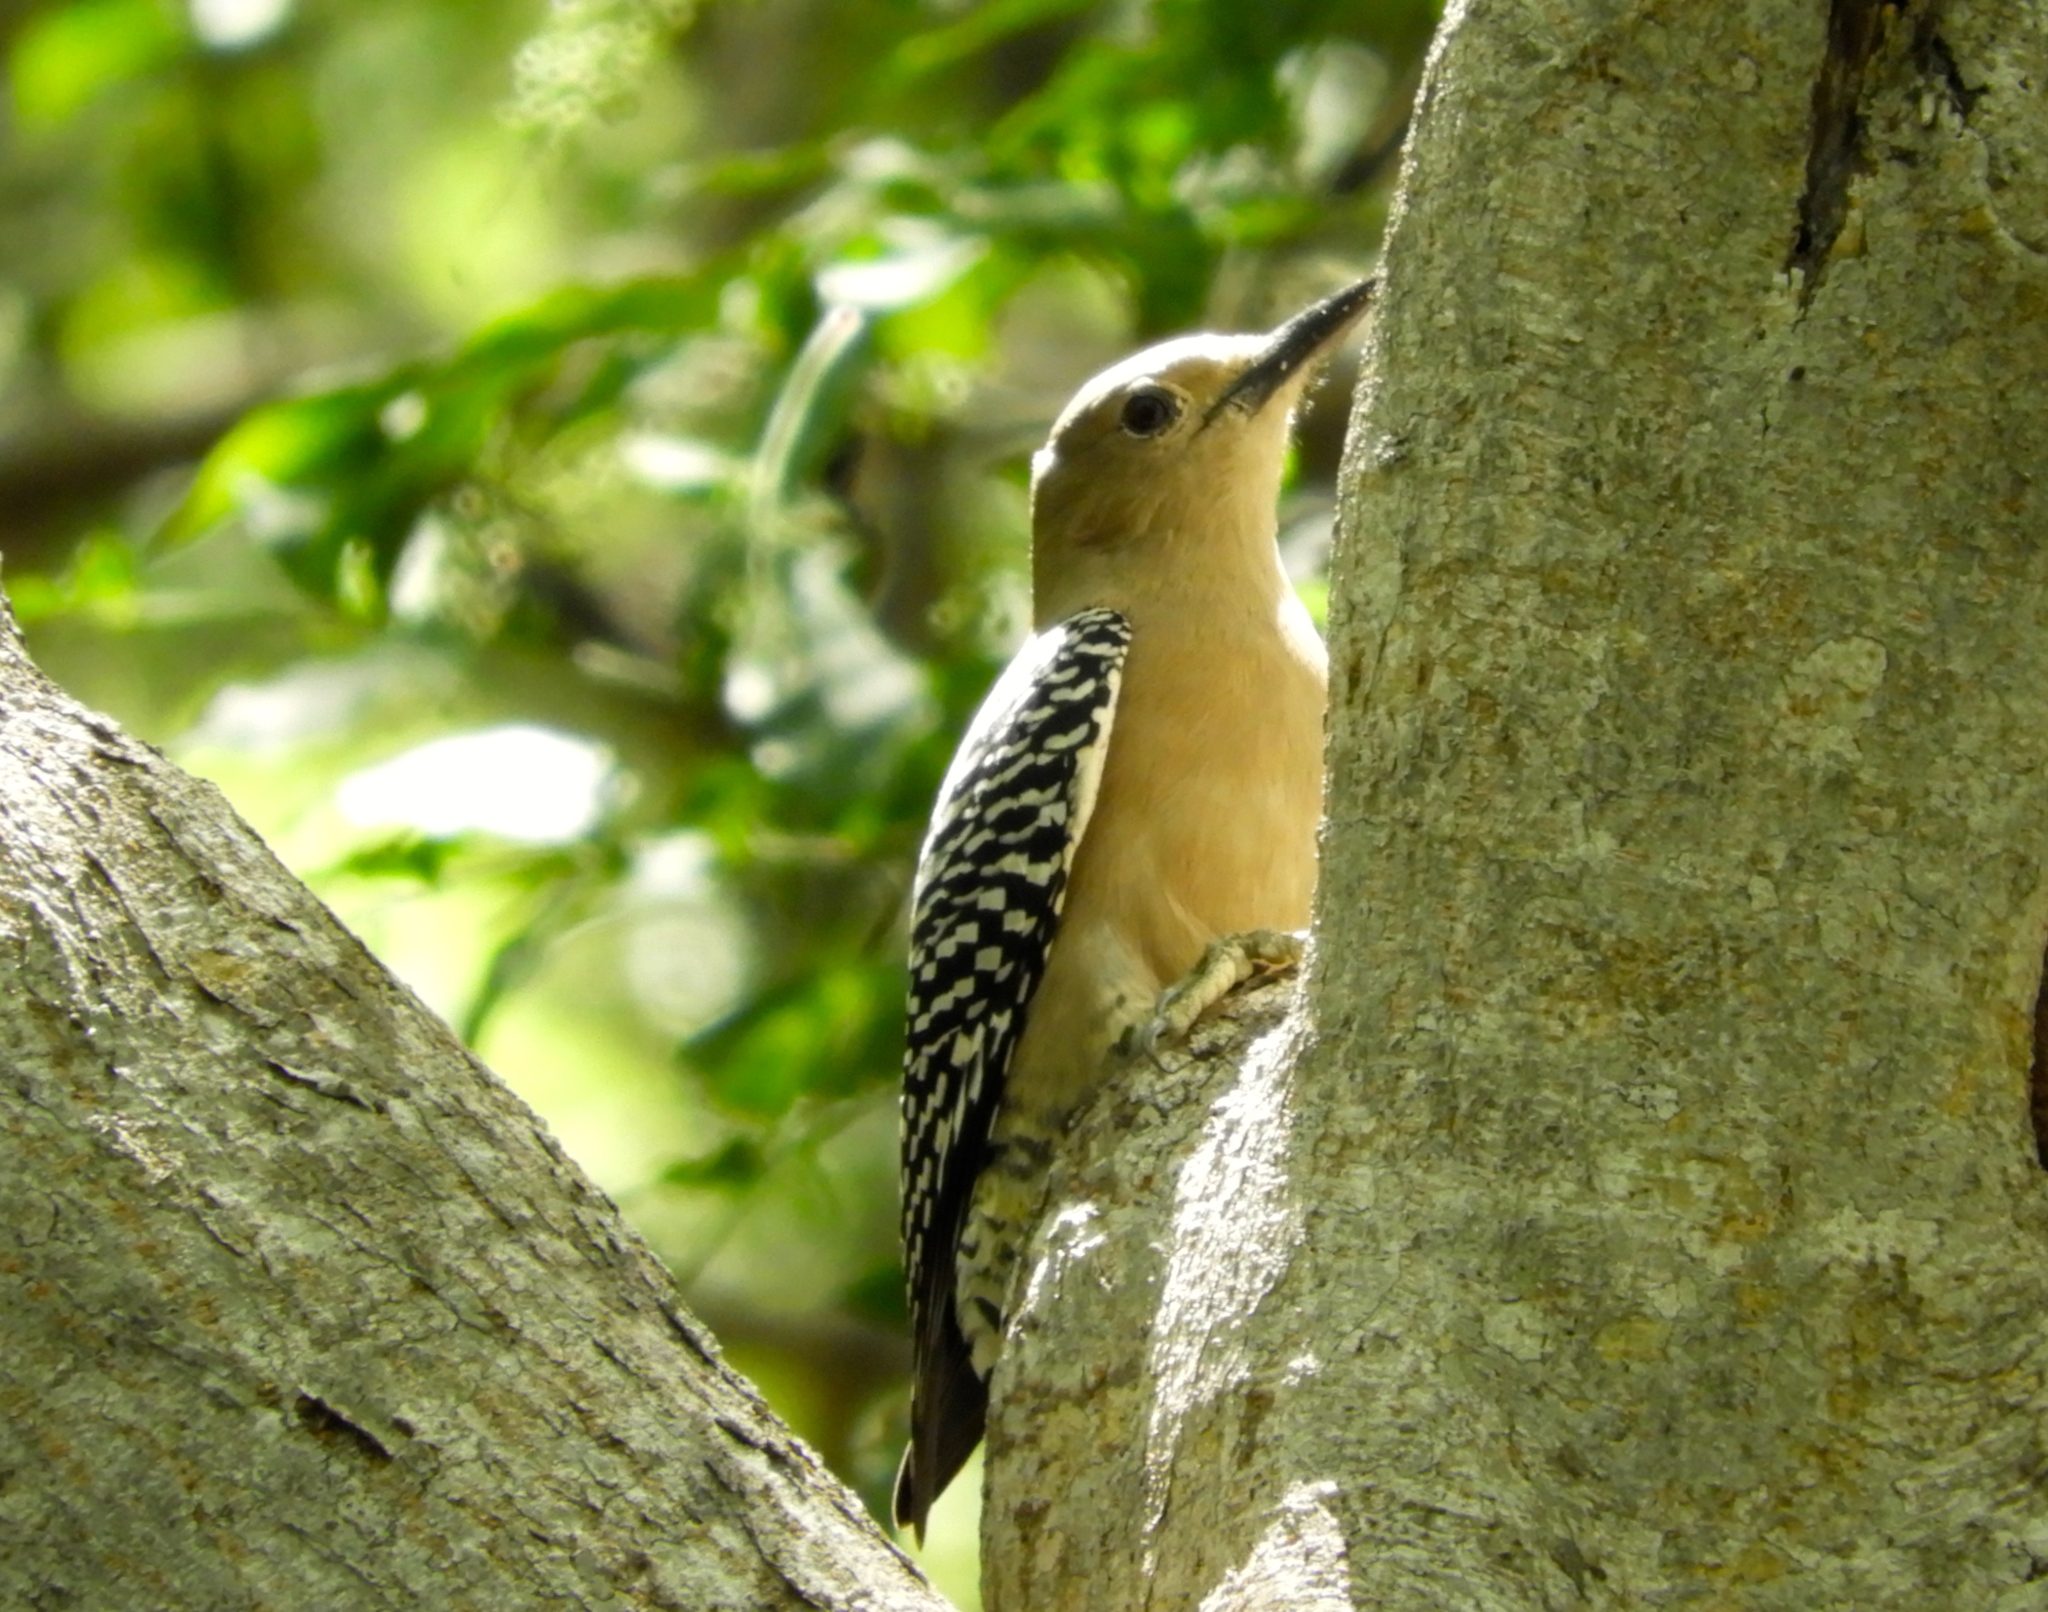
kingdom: Animalia
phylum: Chordata
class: Aves
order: Piciformes
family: Picidae
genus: Melanerpes
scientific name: Melanerpes uropygialis
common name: Gila woodpecker
